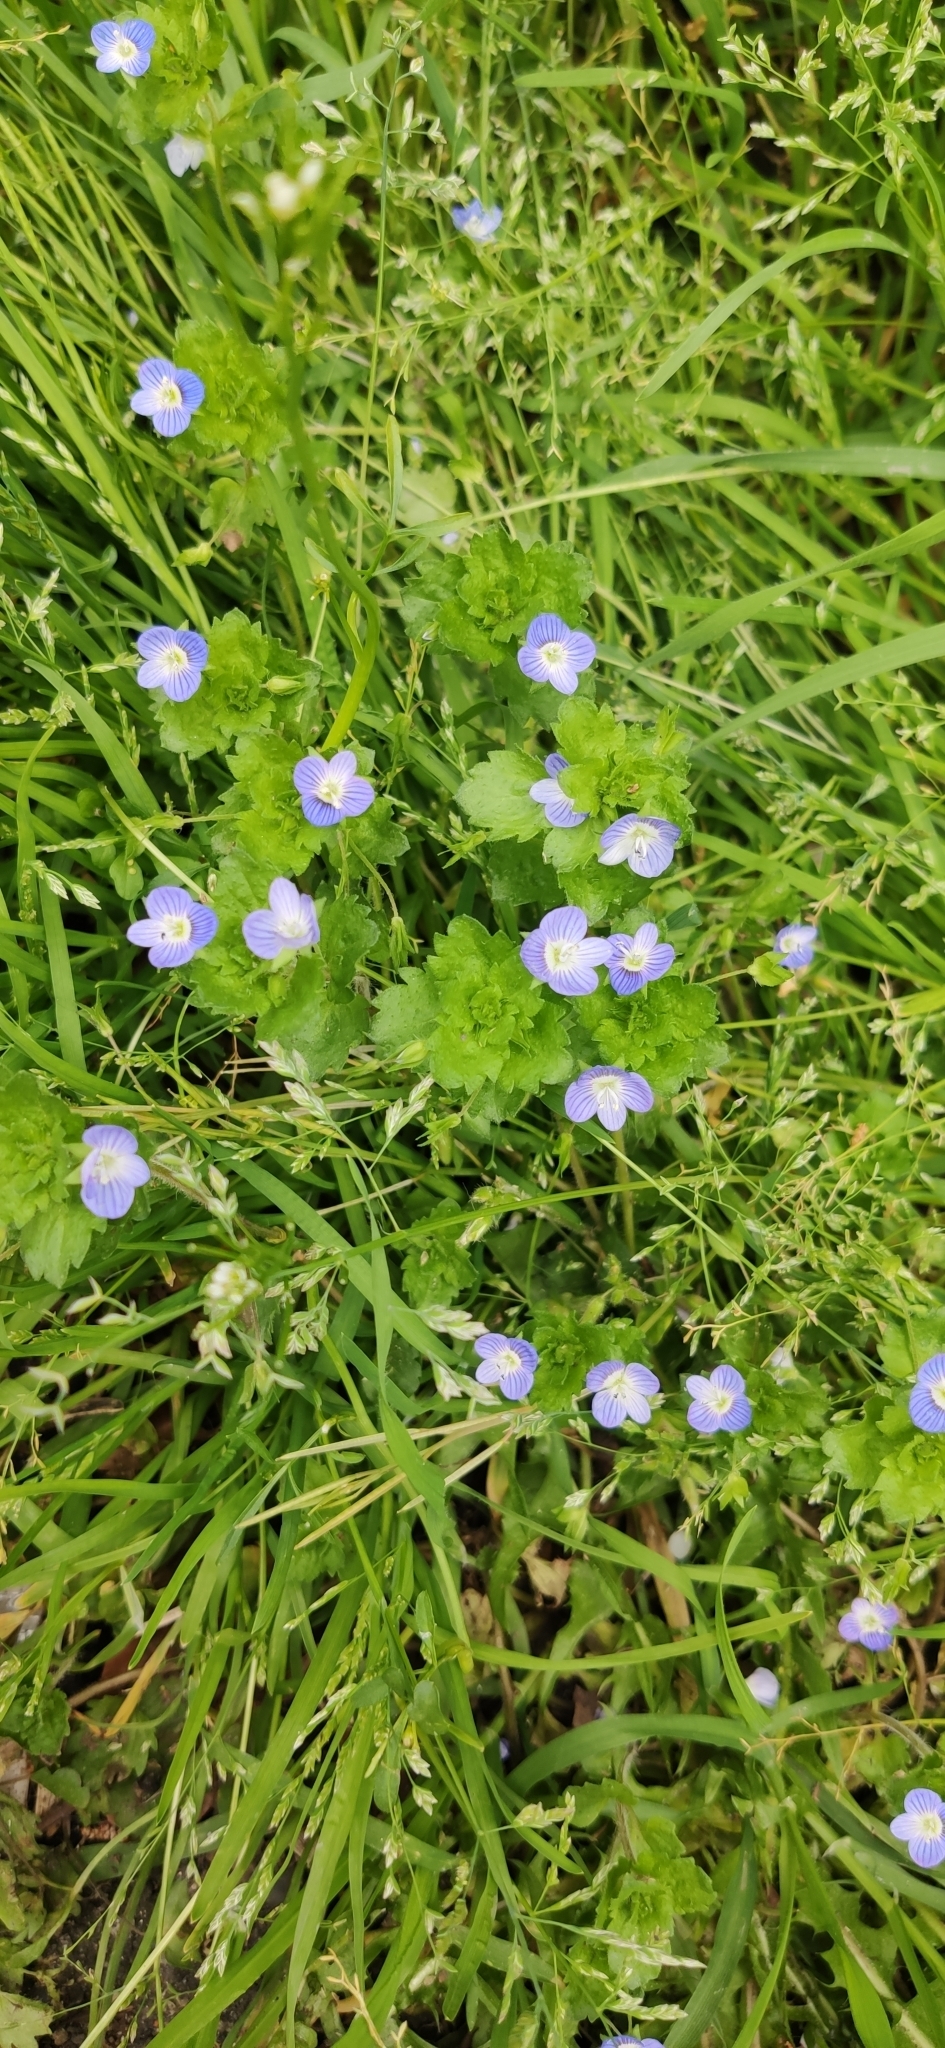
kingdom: Plantae
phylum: Tracheophyta
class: Magnoliopsida
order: Lamiales
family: Plantaginaceae
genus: Veronica
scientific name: Veronica persica
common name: Common field-speedwell
